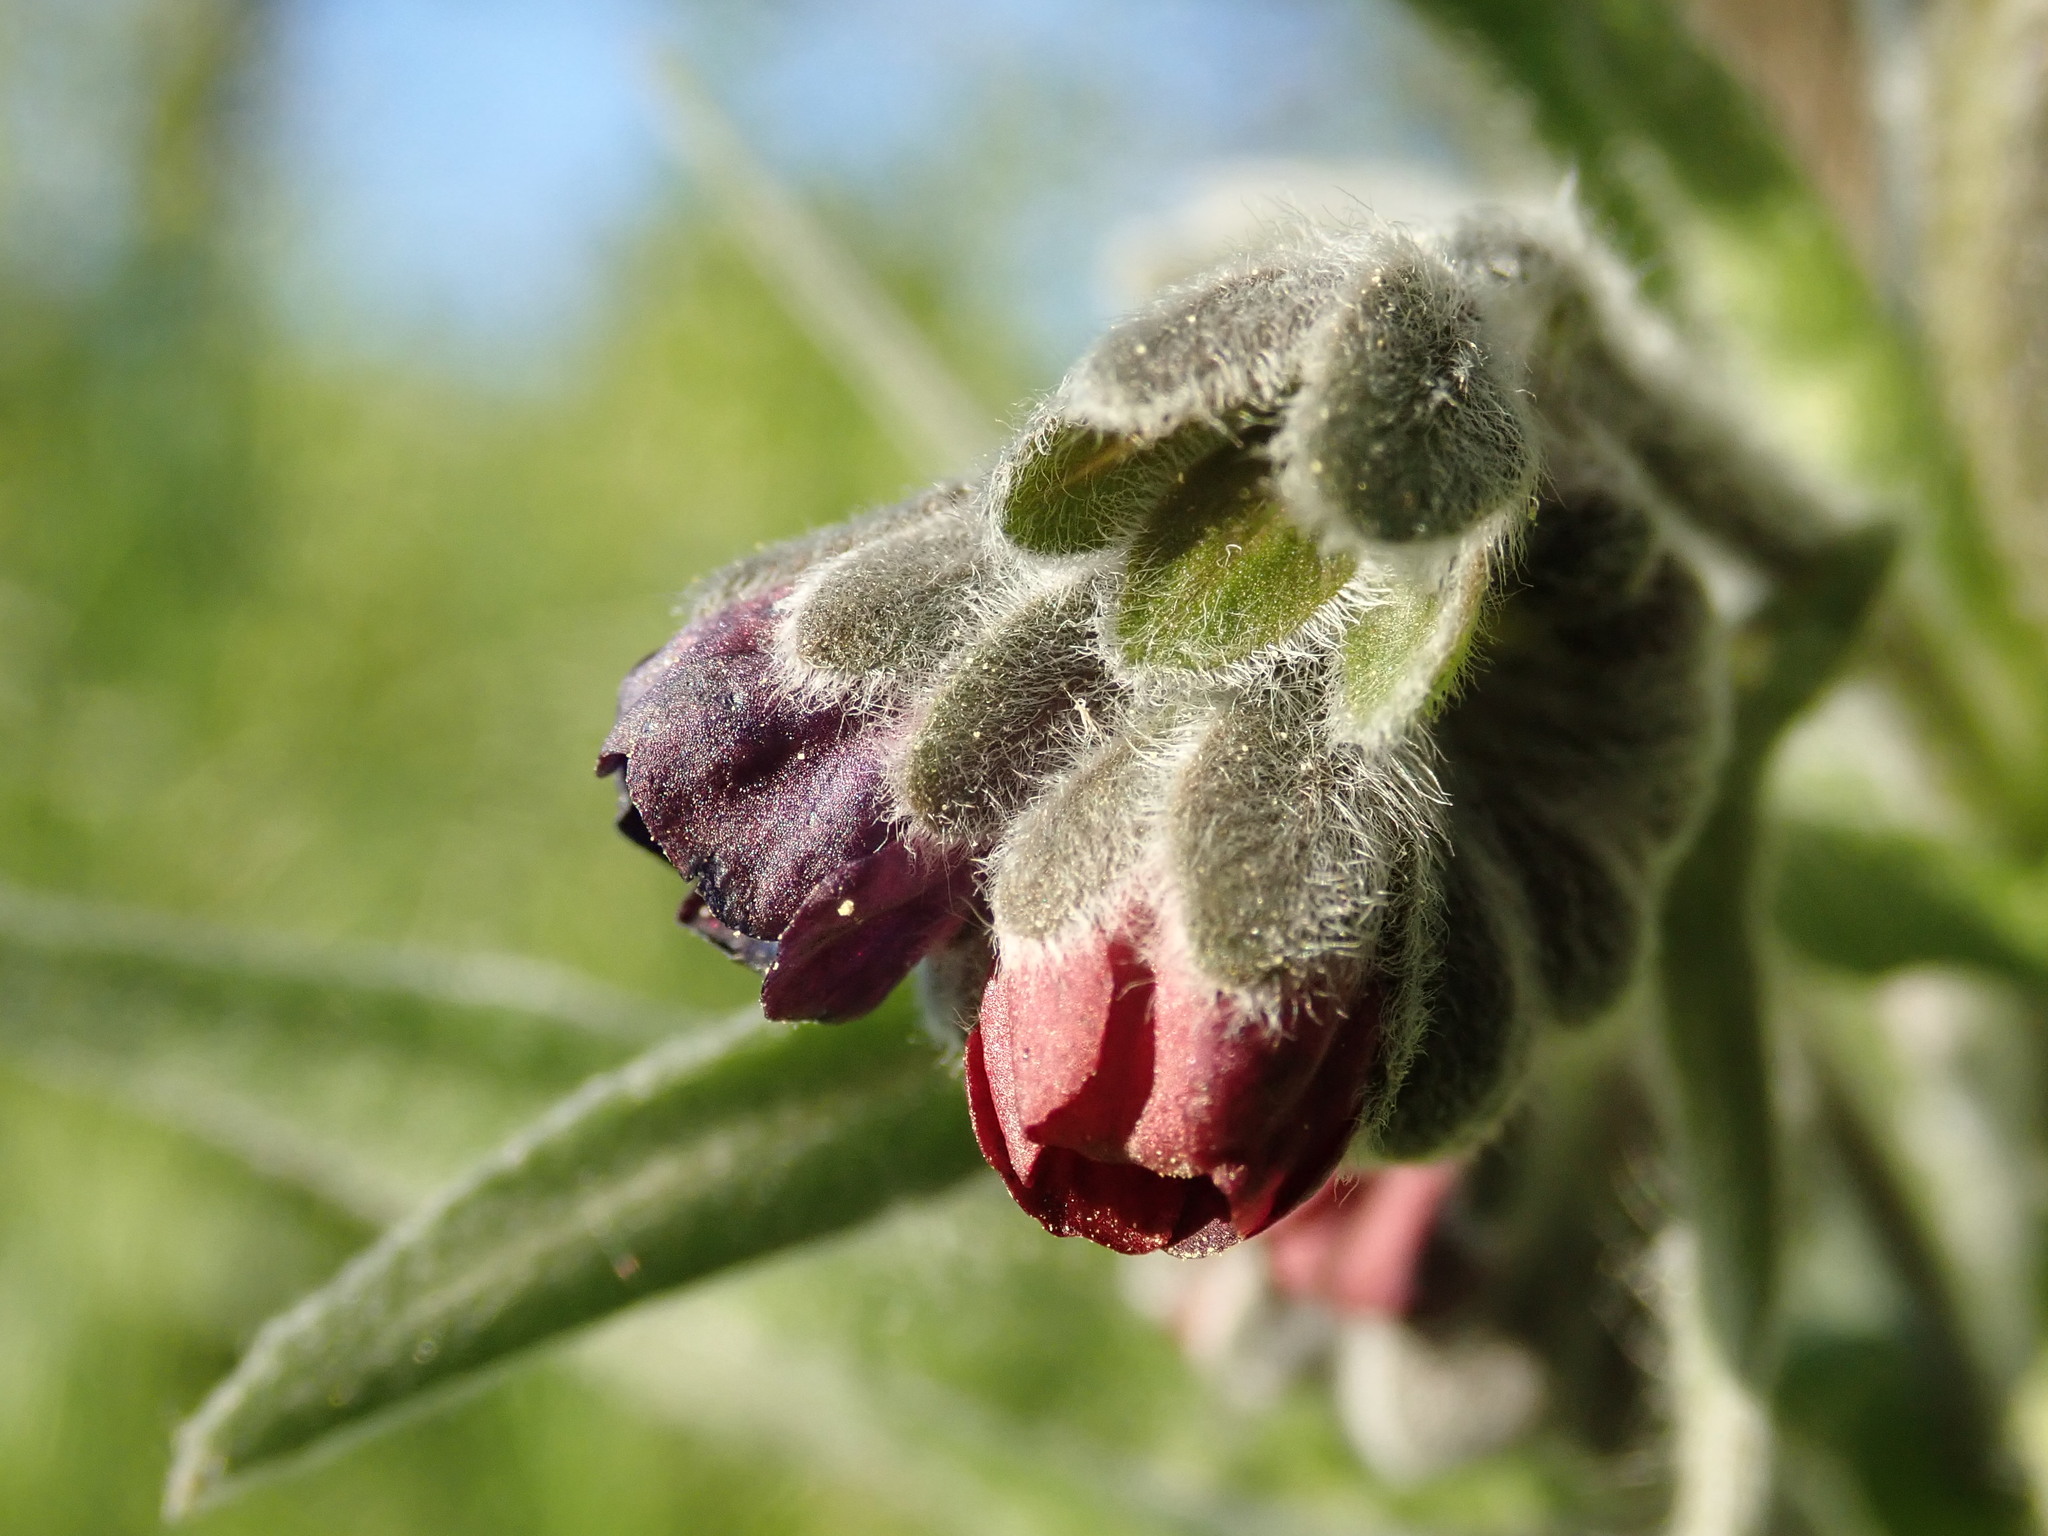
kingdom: Plantae
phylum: Tracheophyta
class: Magnoliopsida
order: Boraginales
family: Boraginaceae
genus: Cynoglossum
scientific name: Cynoglossum officinale
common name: Hound's-tongue
